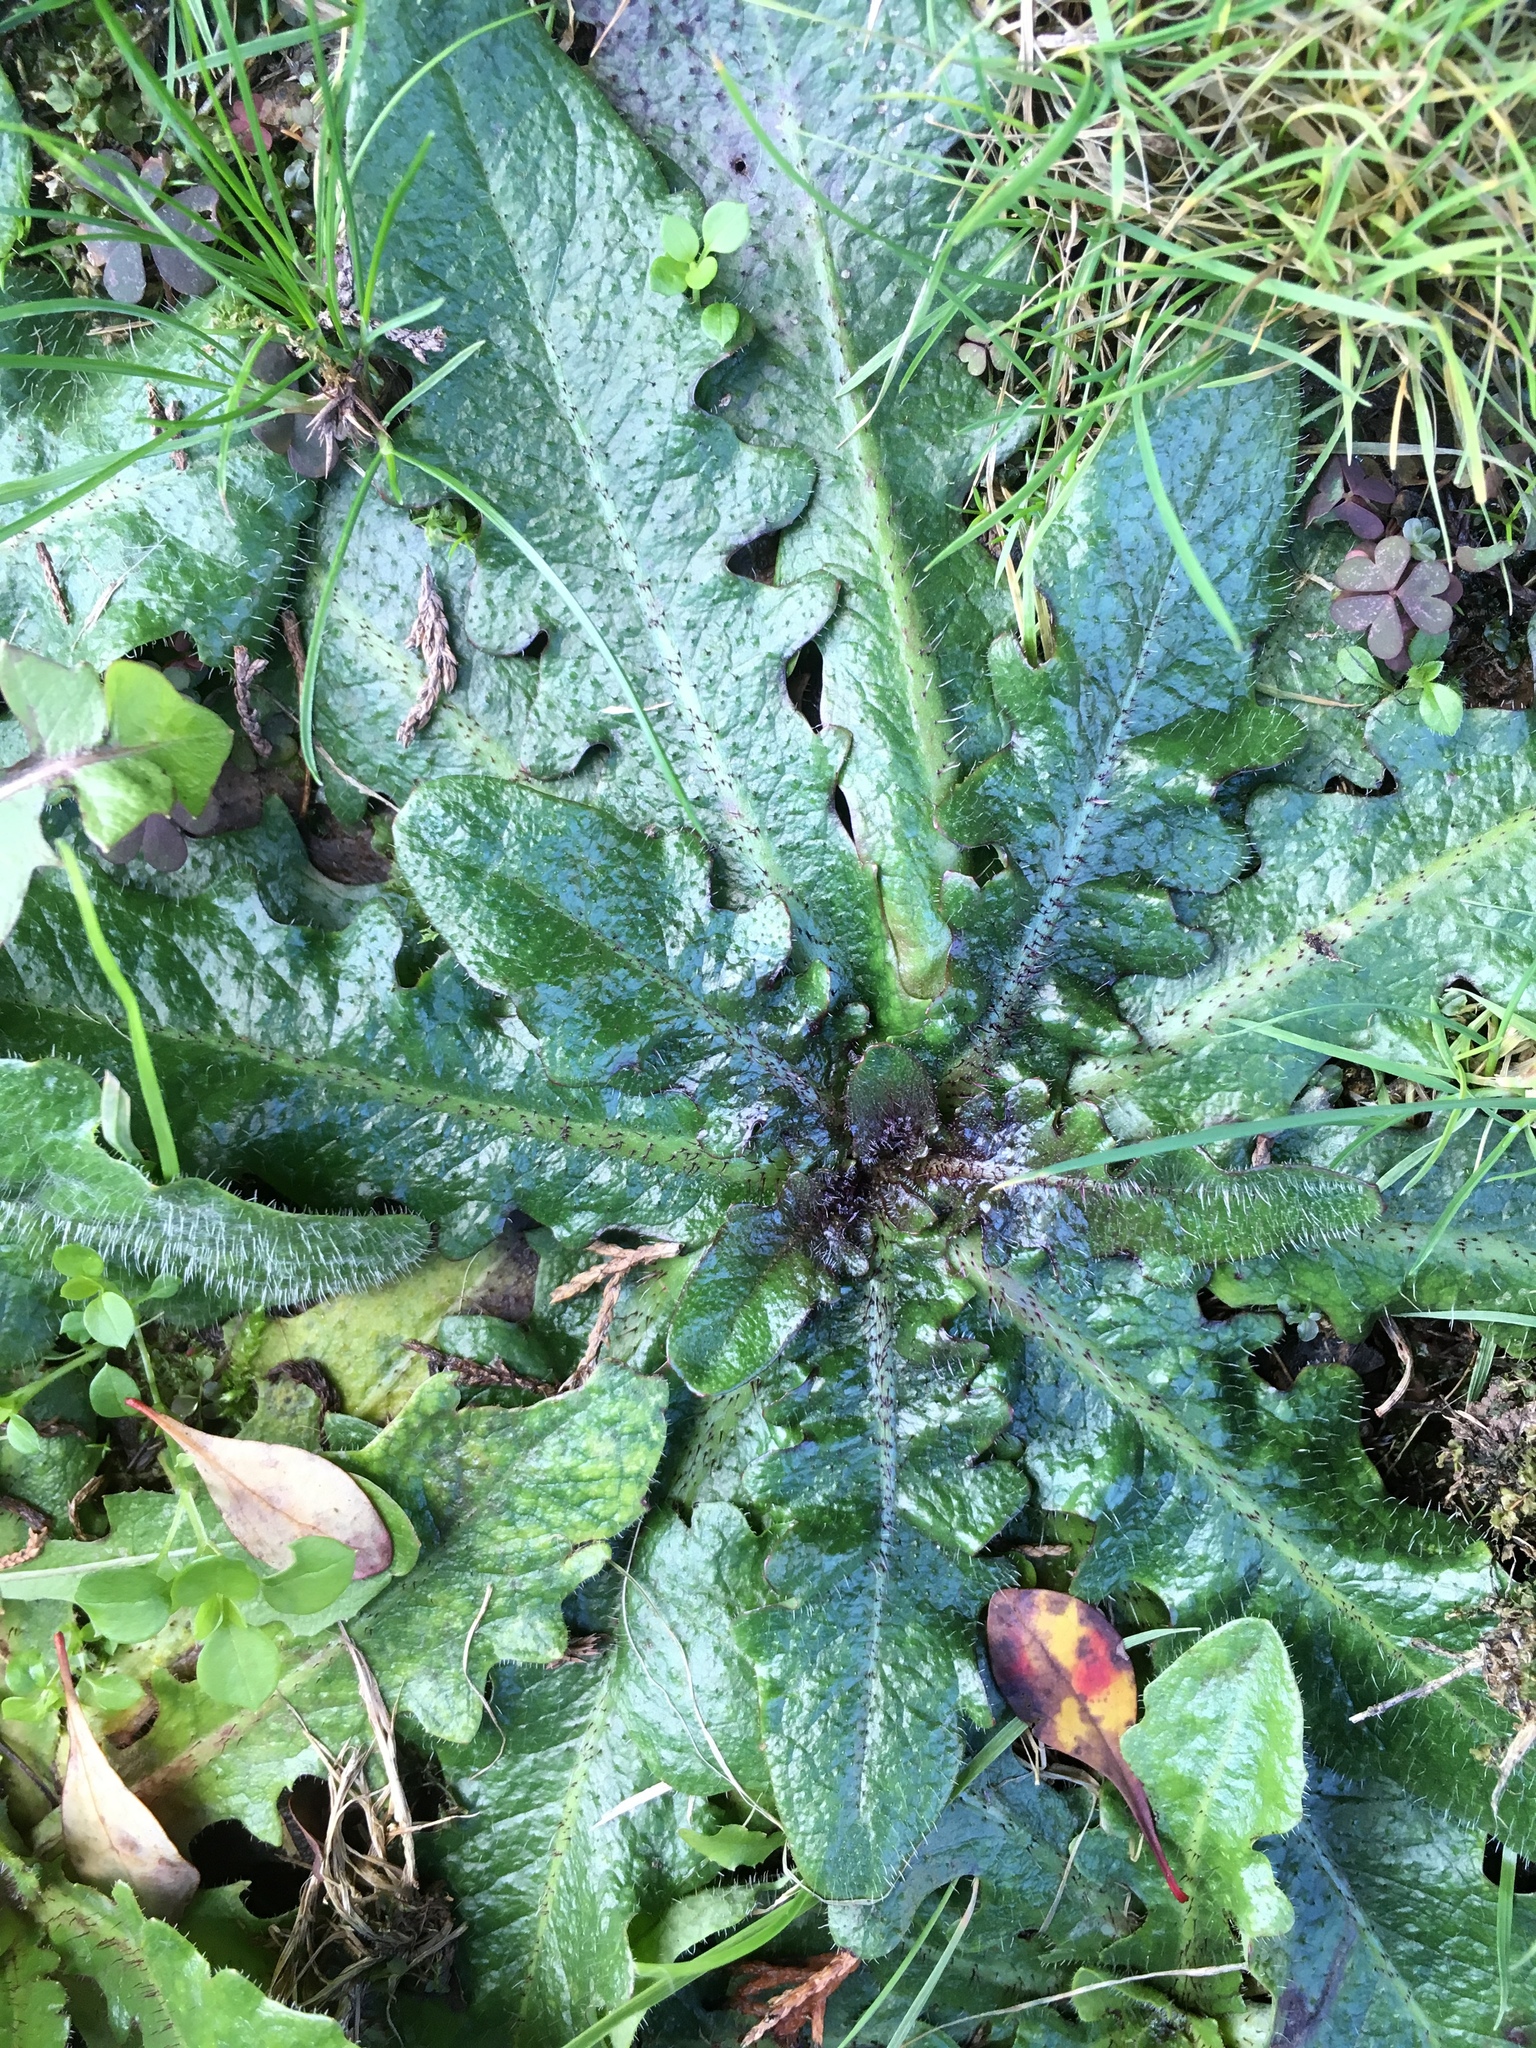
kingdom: Plantae
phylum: Tracheophyta
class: Magnoliopsida
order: Asterales
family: Asteraceae
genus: Hypochaeris
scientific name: Hypochaeris radicata
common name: Flatweed
